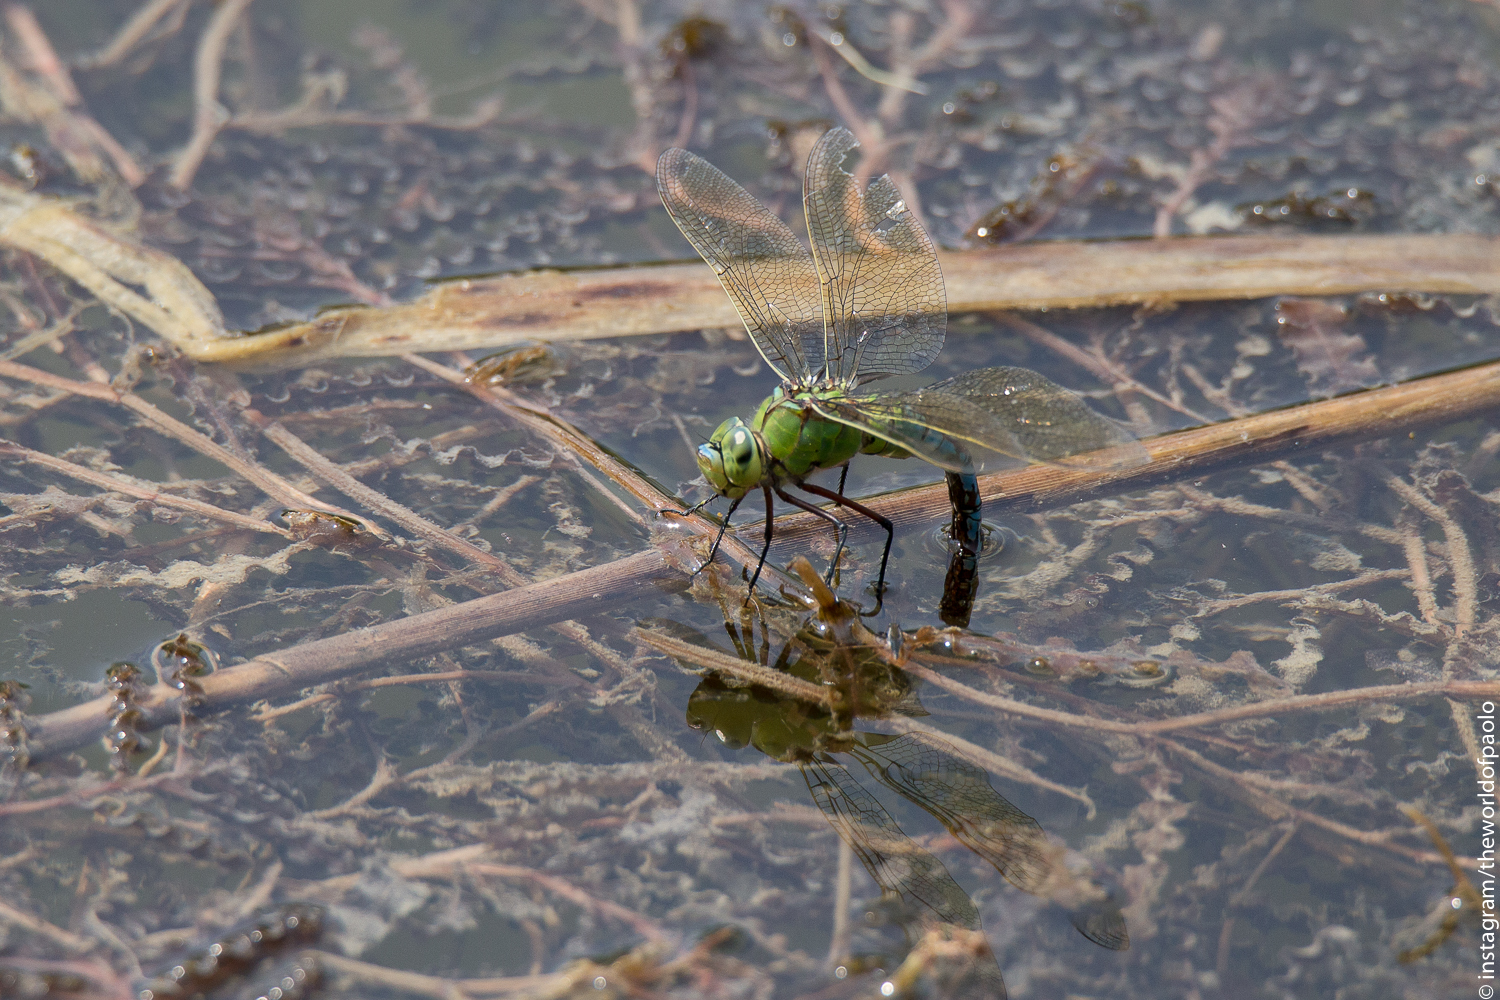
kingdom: Animalia
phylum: Arthropoda
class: Insecta
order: Odonata
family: Aeshnidae
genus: Anax
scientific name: Anax imperator
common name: Emperor dragonfly
